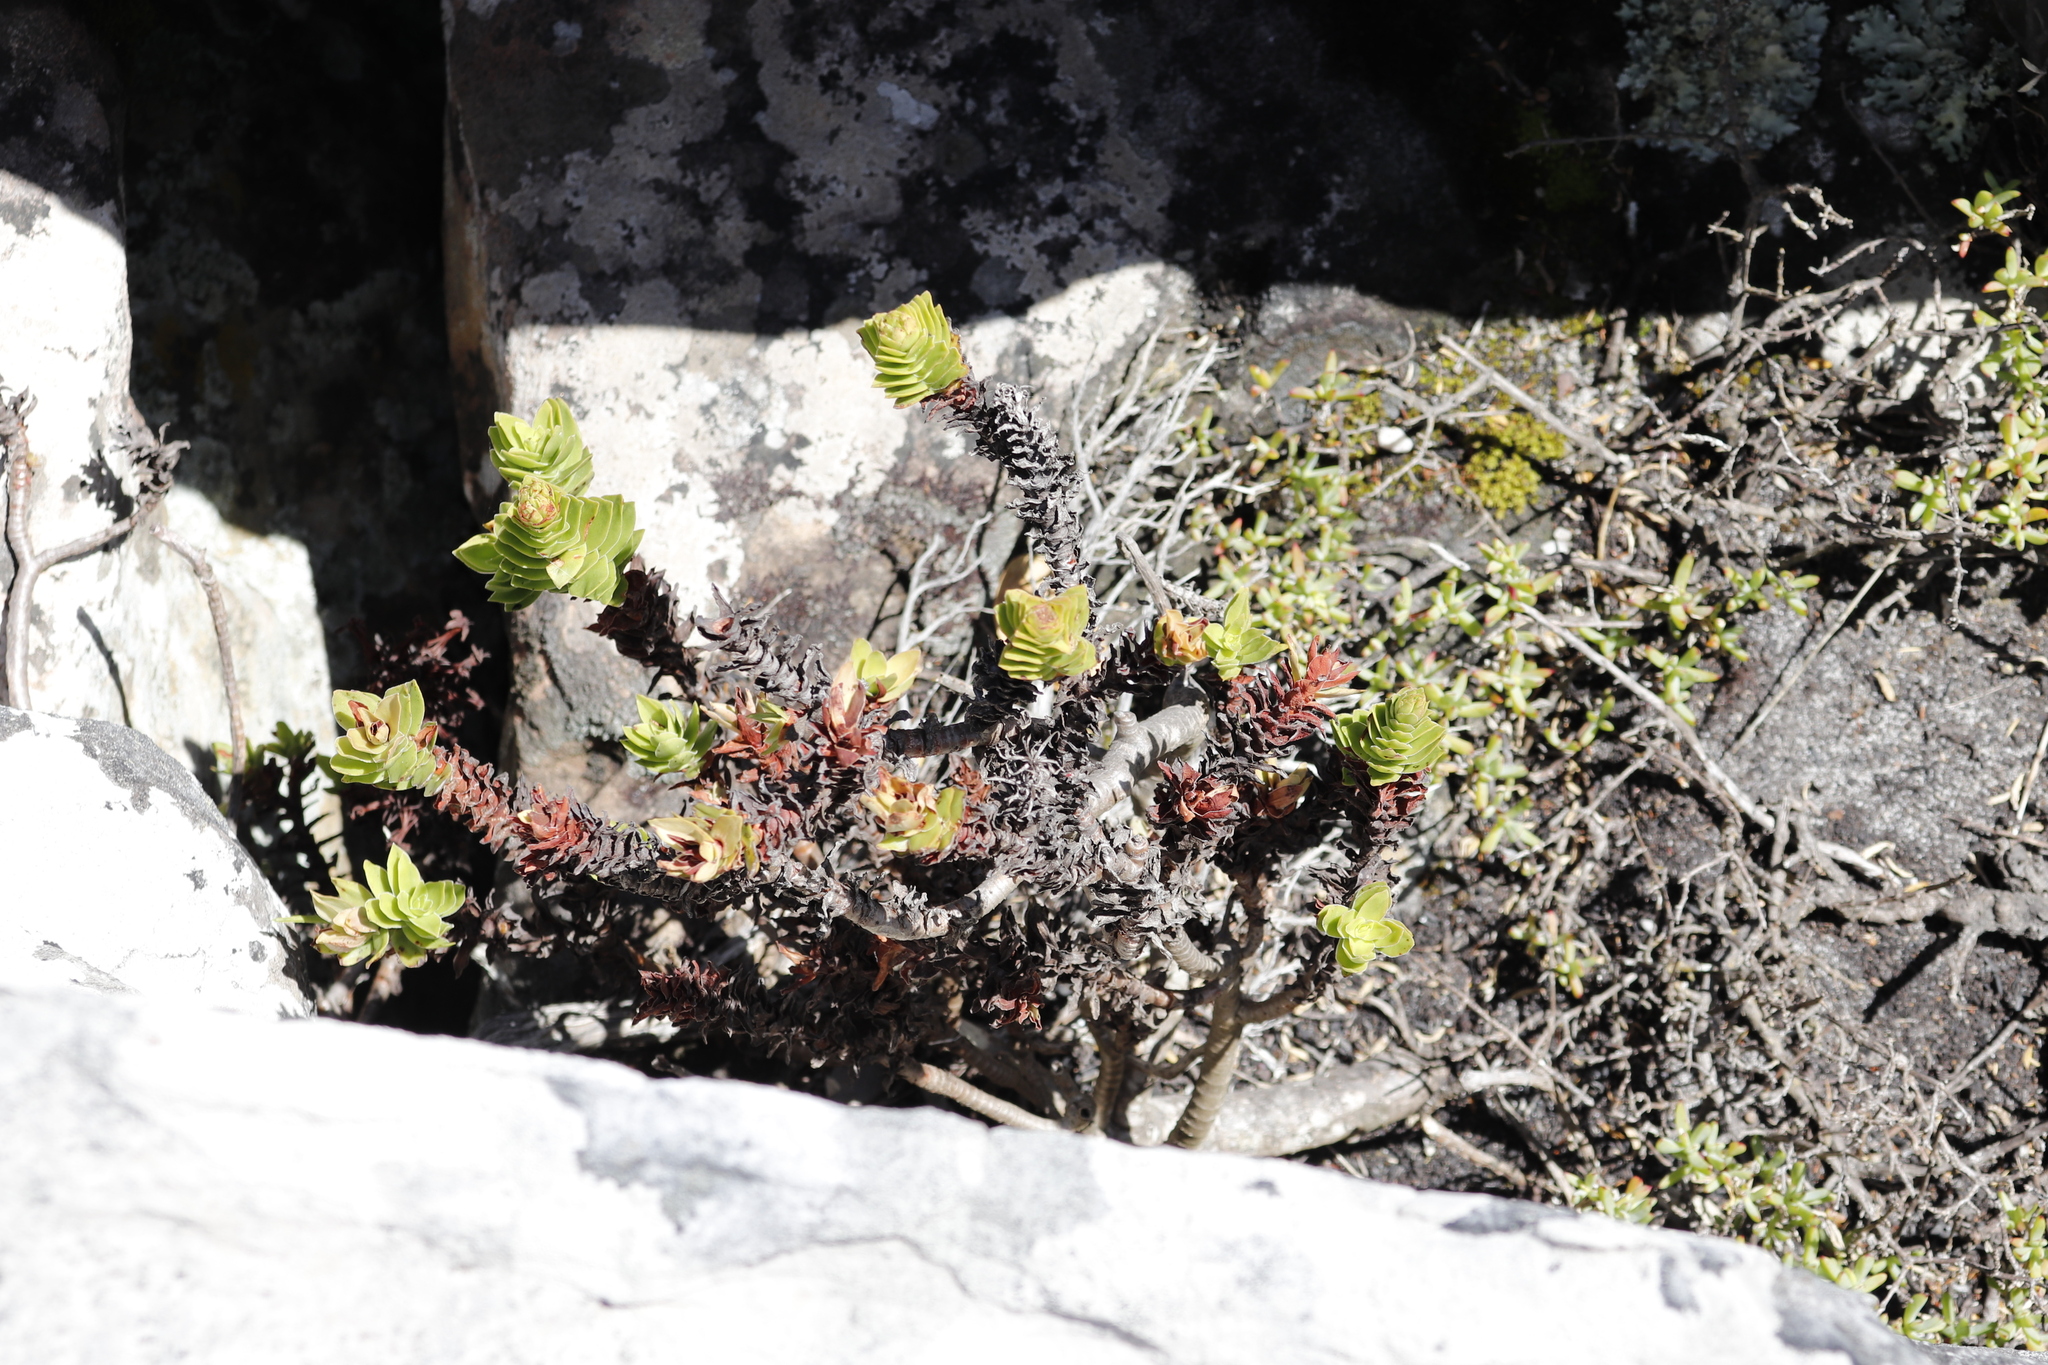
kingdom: Plantae
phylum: Tracheophyta
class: Magnoliopsida
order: Saxifragales
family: Crassulaceae
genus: Crassula
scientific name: Crassula coccinea
